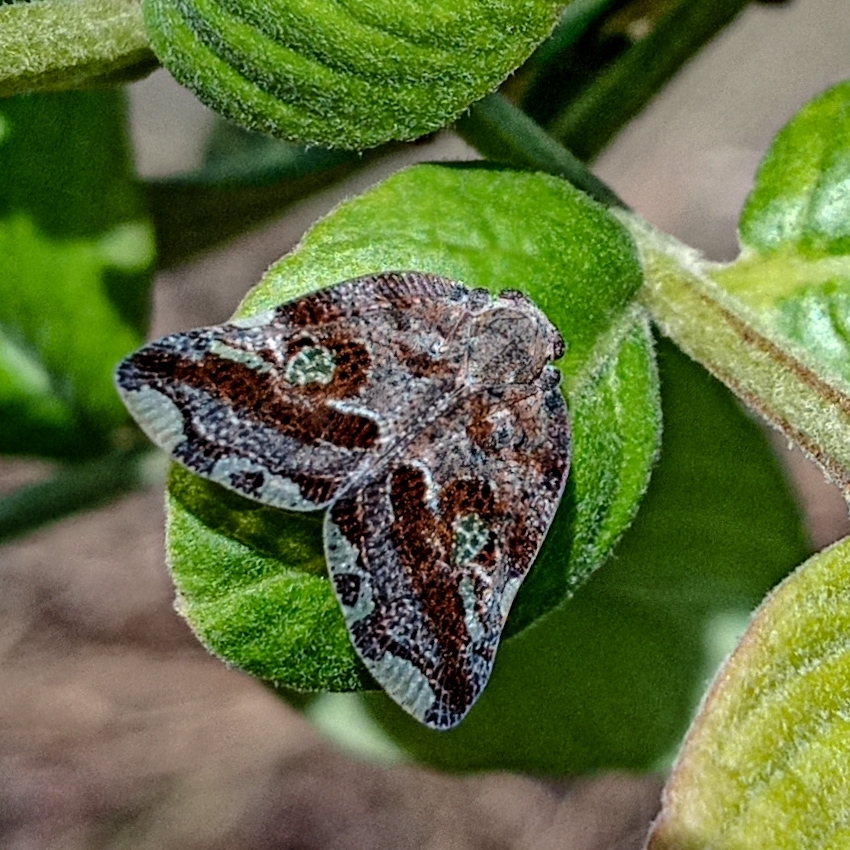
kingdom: Animalia
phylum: Arthropoda
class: Insecta
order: Hemiptera
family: Ricaniidae
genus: Ricania
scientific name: Ricania speculum
